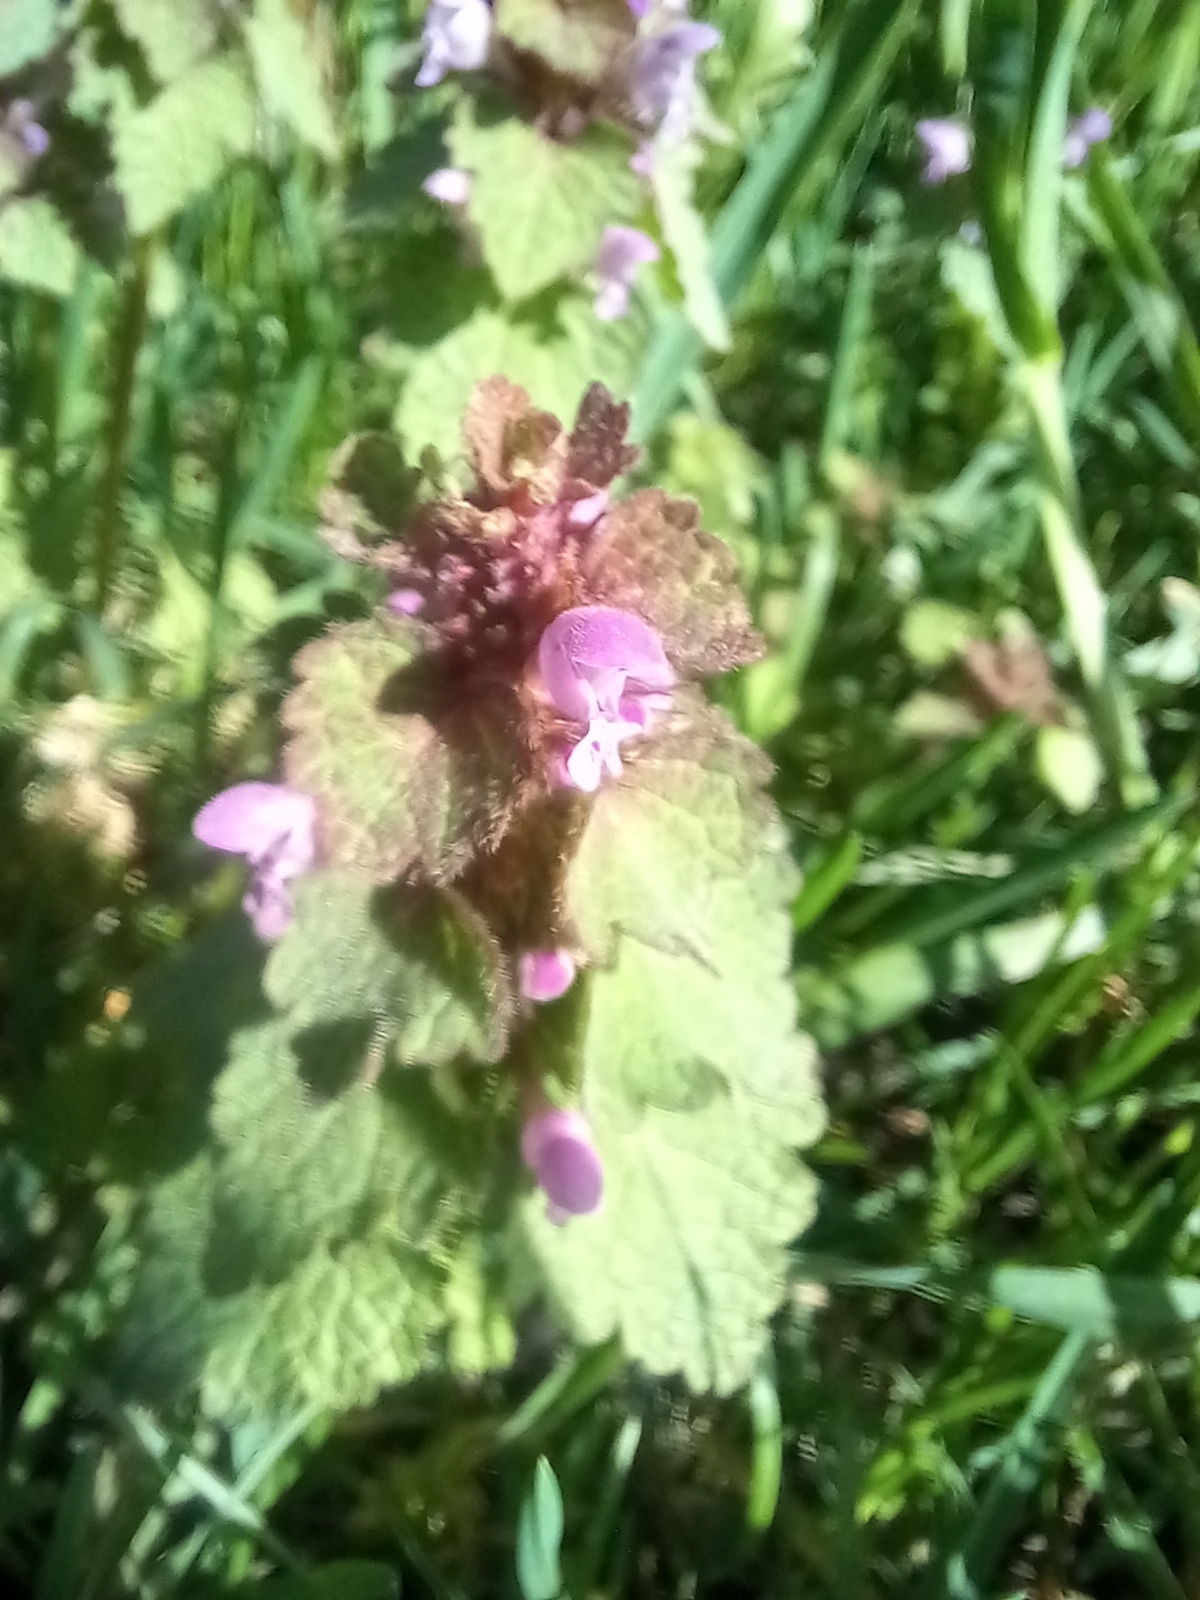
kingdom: Plantae
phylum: Tracheophyta
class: Magnoliopsida
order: Lamiales
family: Lamiaceae
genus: Lamium
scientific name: Lamium purpureum
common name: Red dead-nettle
